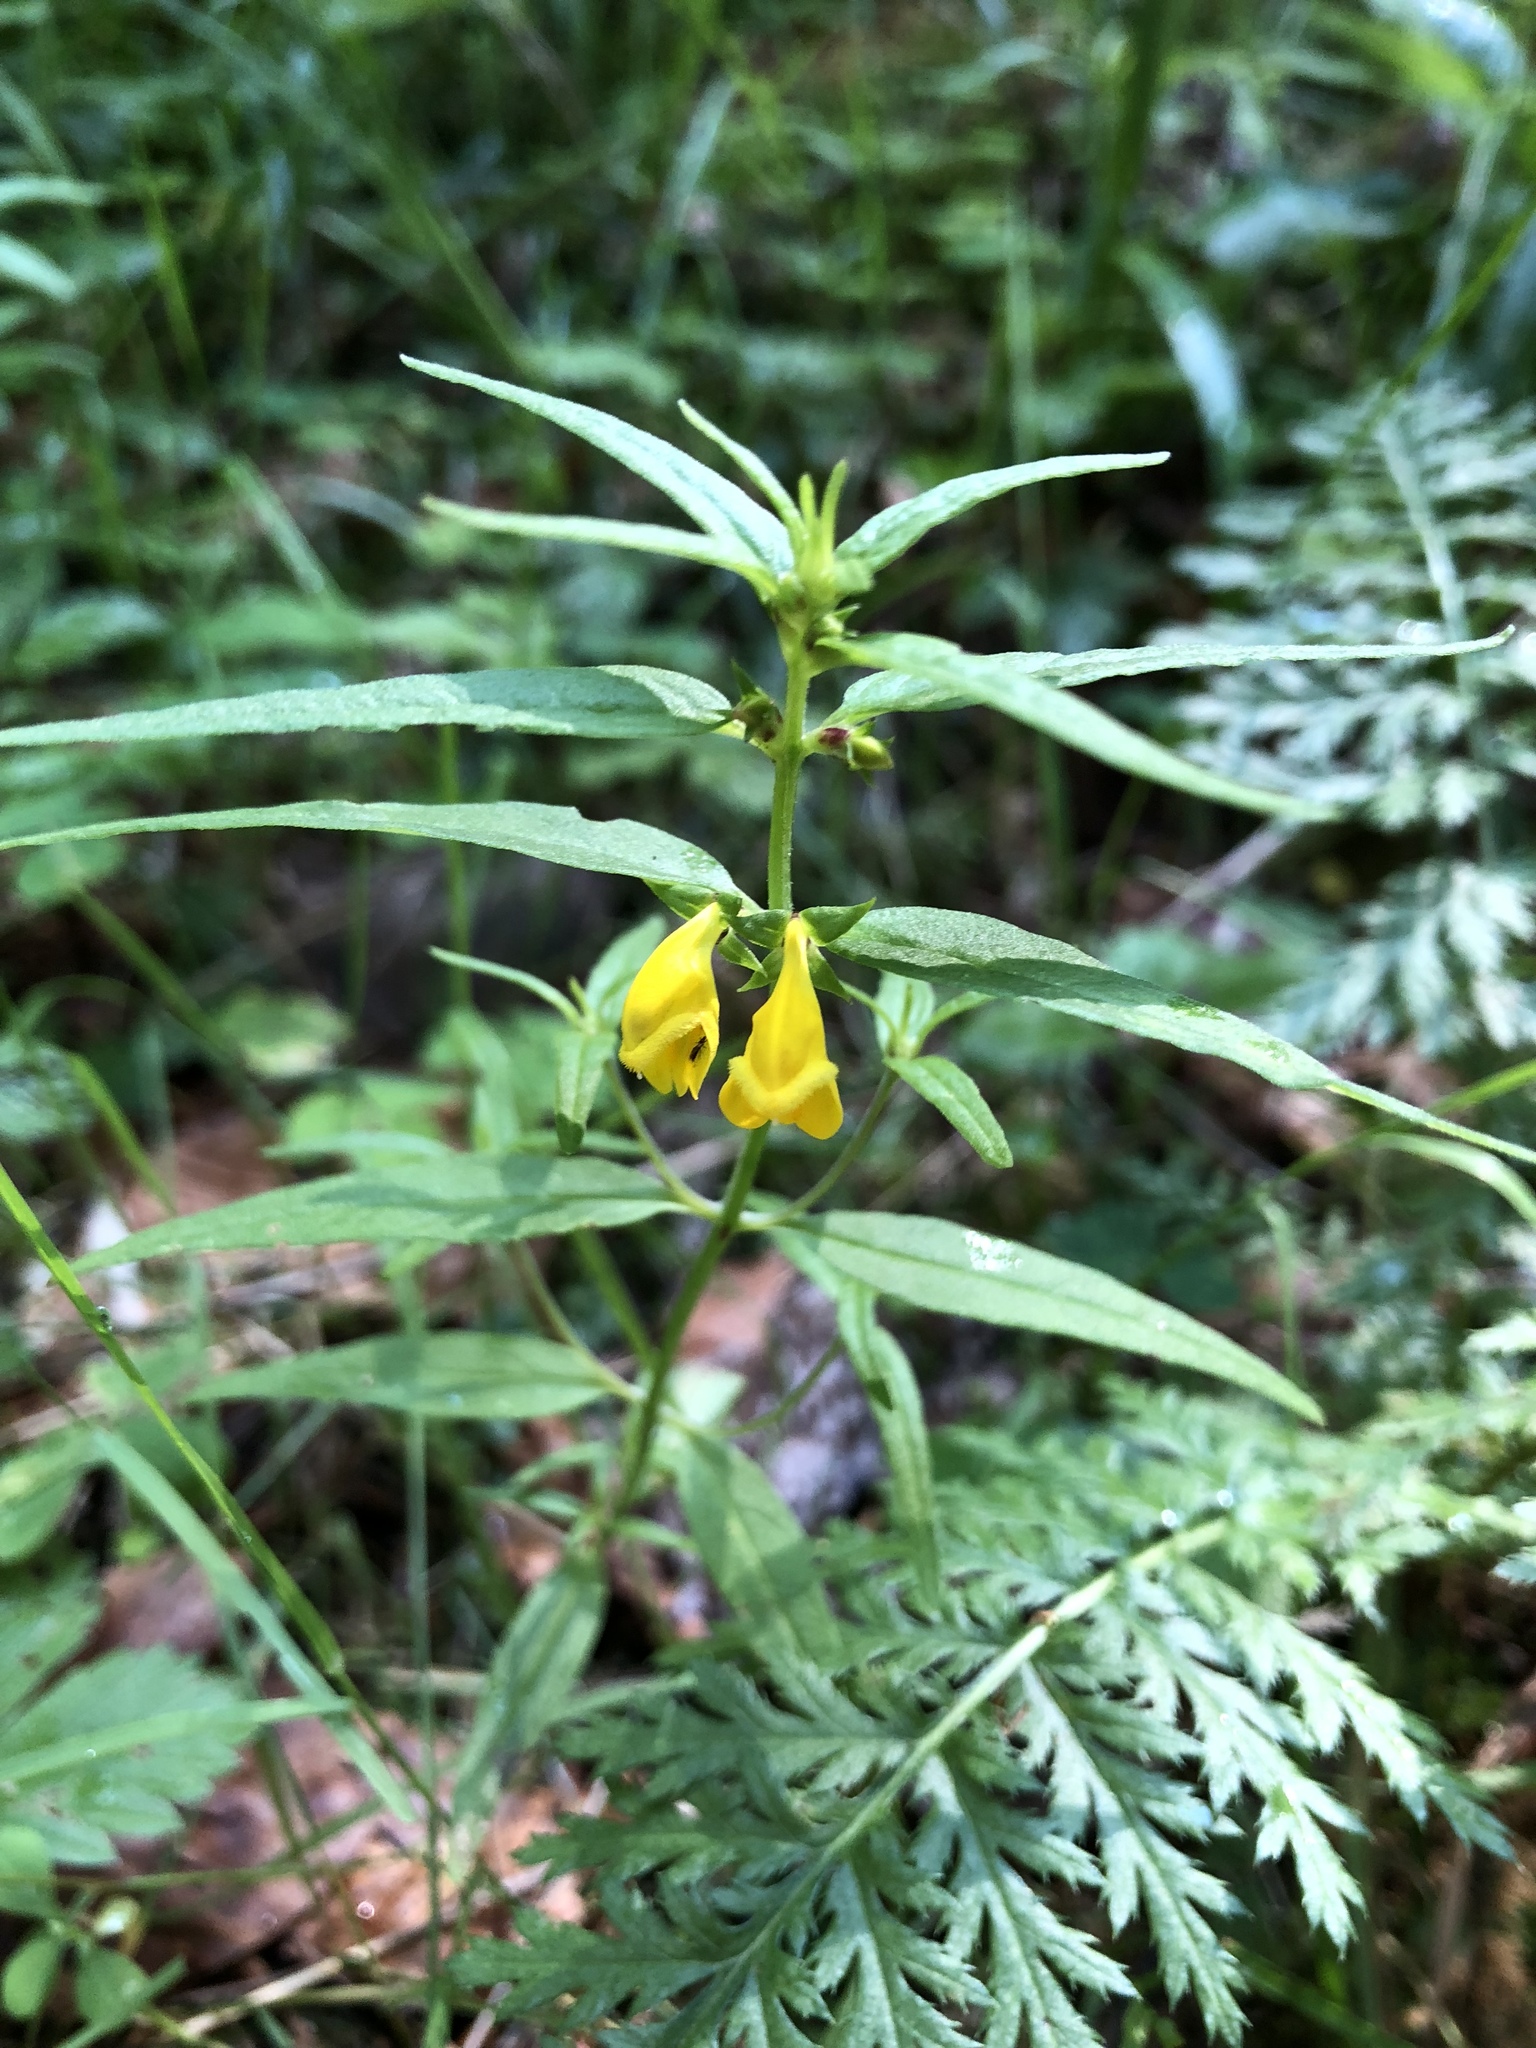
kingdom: Plantae
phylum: Tracheophyta
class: Magnoliopsida
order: Lamiales
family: Orobanchaceae
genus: Melampyrum
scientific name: Melampyrum sylvaticum
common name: Small cow-wheat
